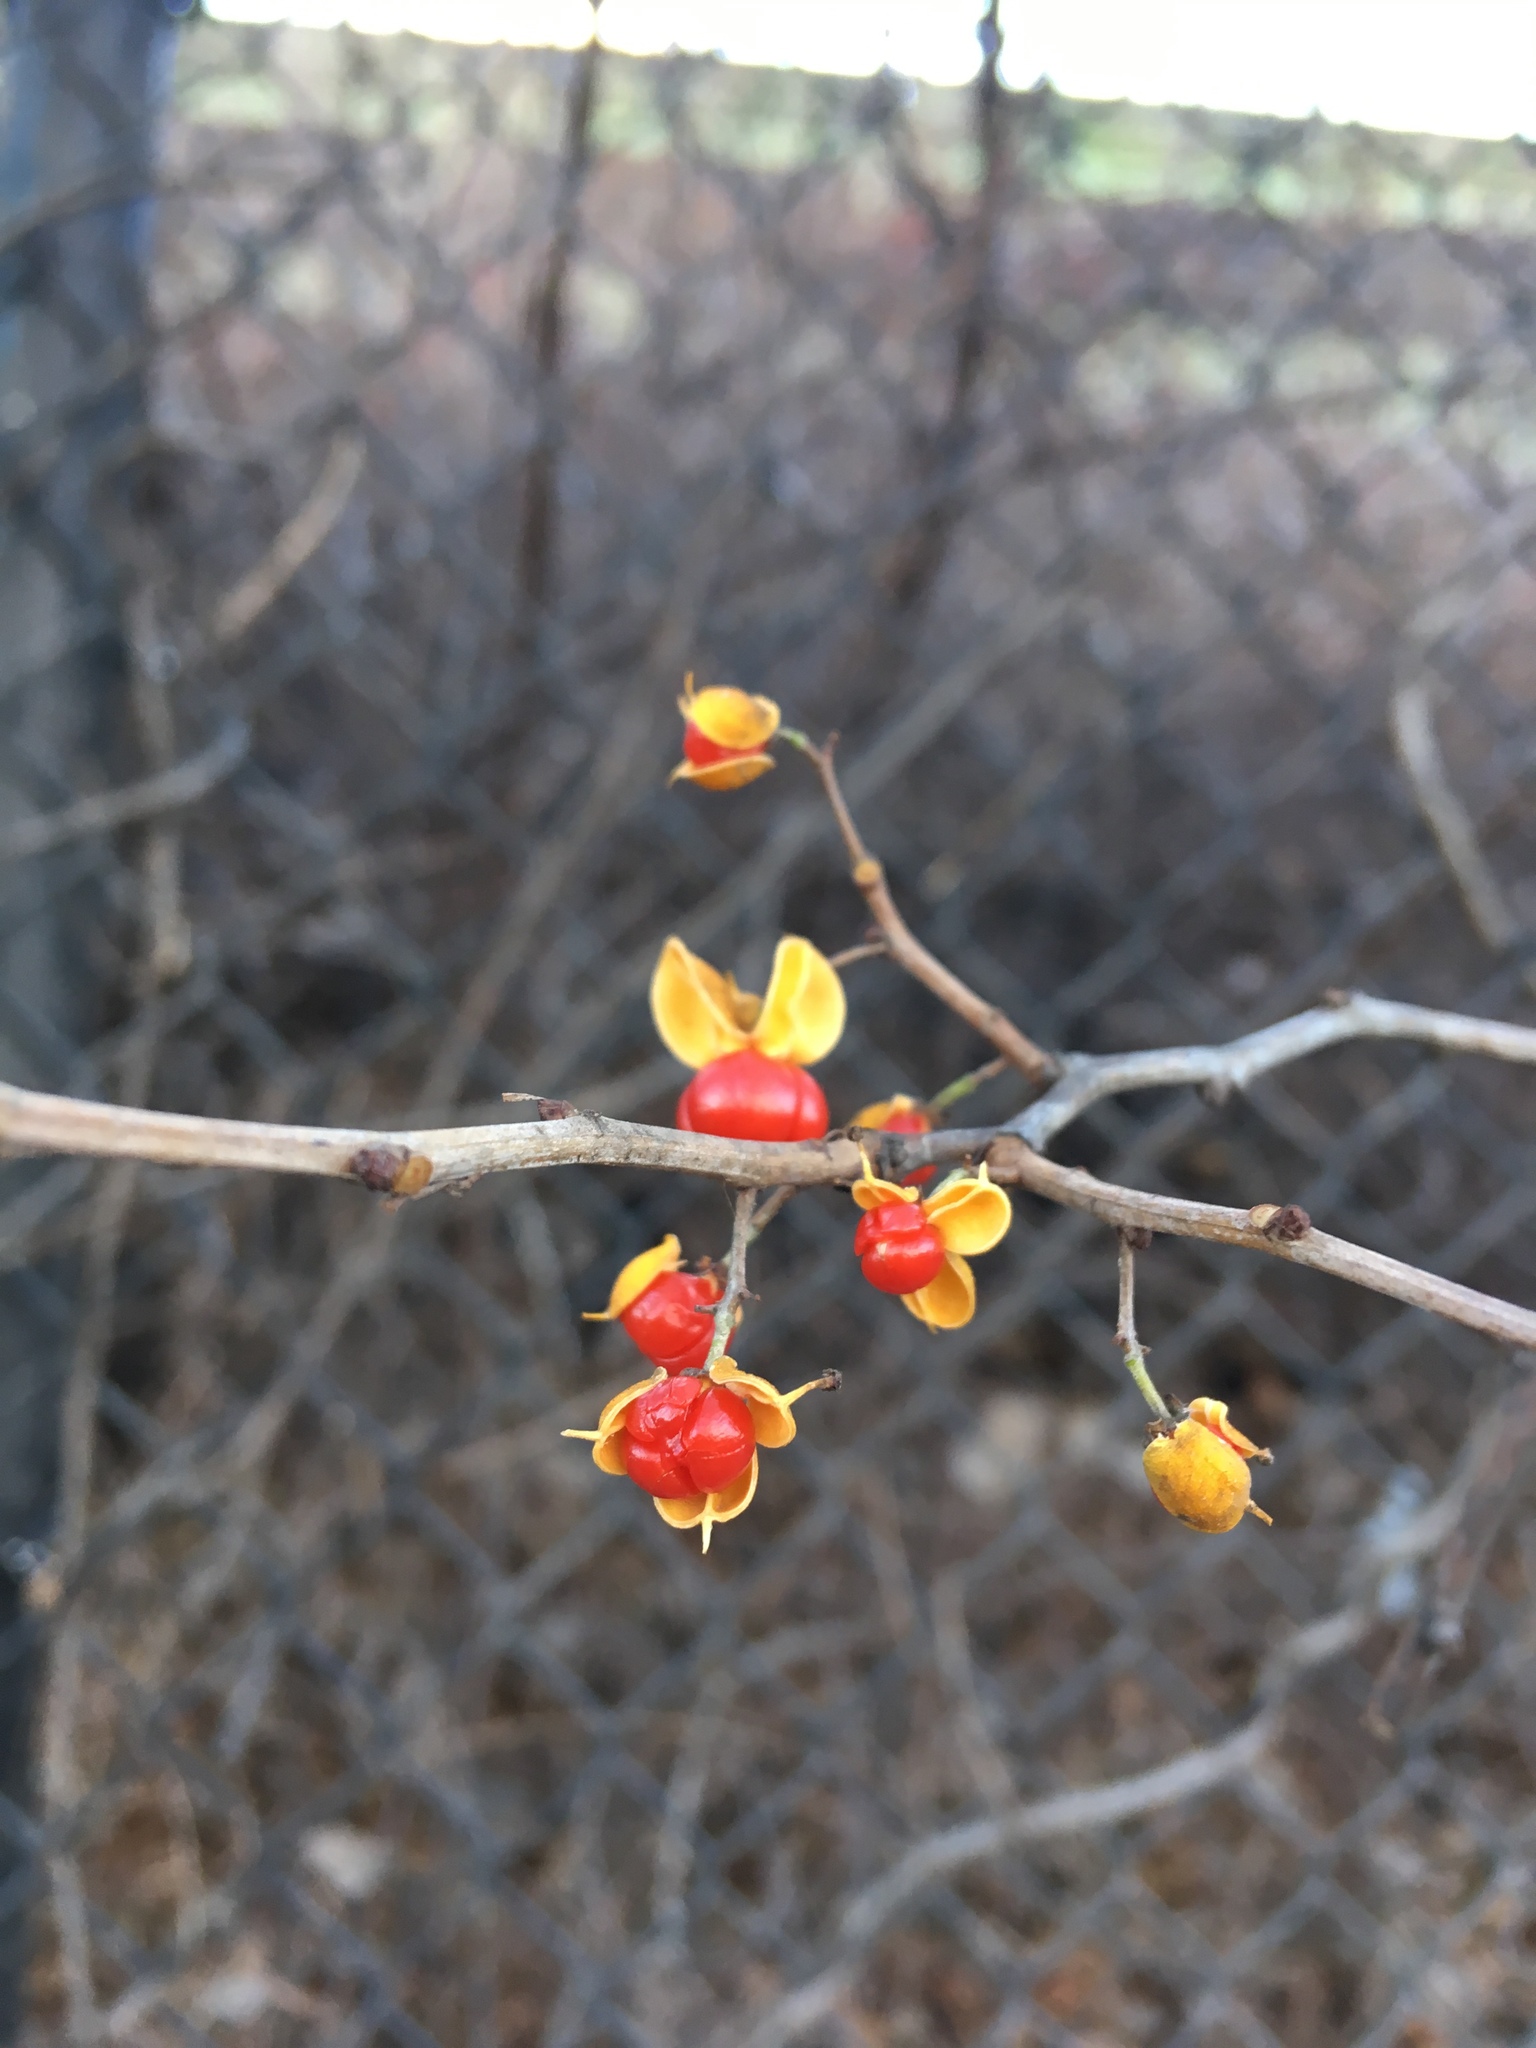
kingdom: Plantae
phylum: Tracheophyta
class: Magnoliopsida
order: Celastrales
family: Celastraceae
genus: Celastrus
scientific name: Celastrus orbiculatus
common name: Oriental bittersweet
